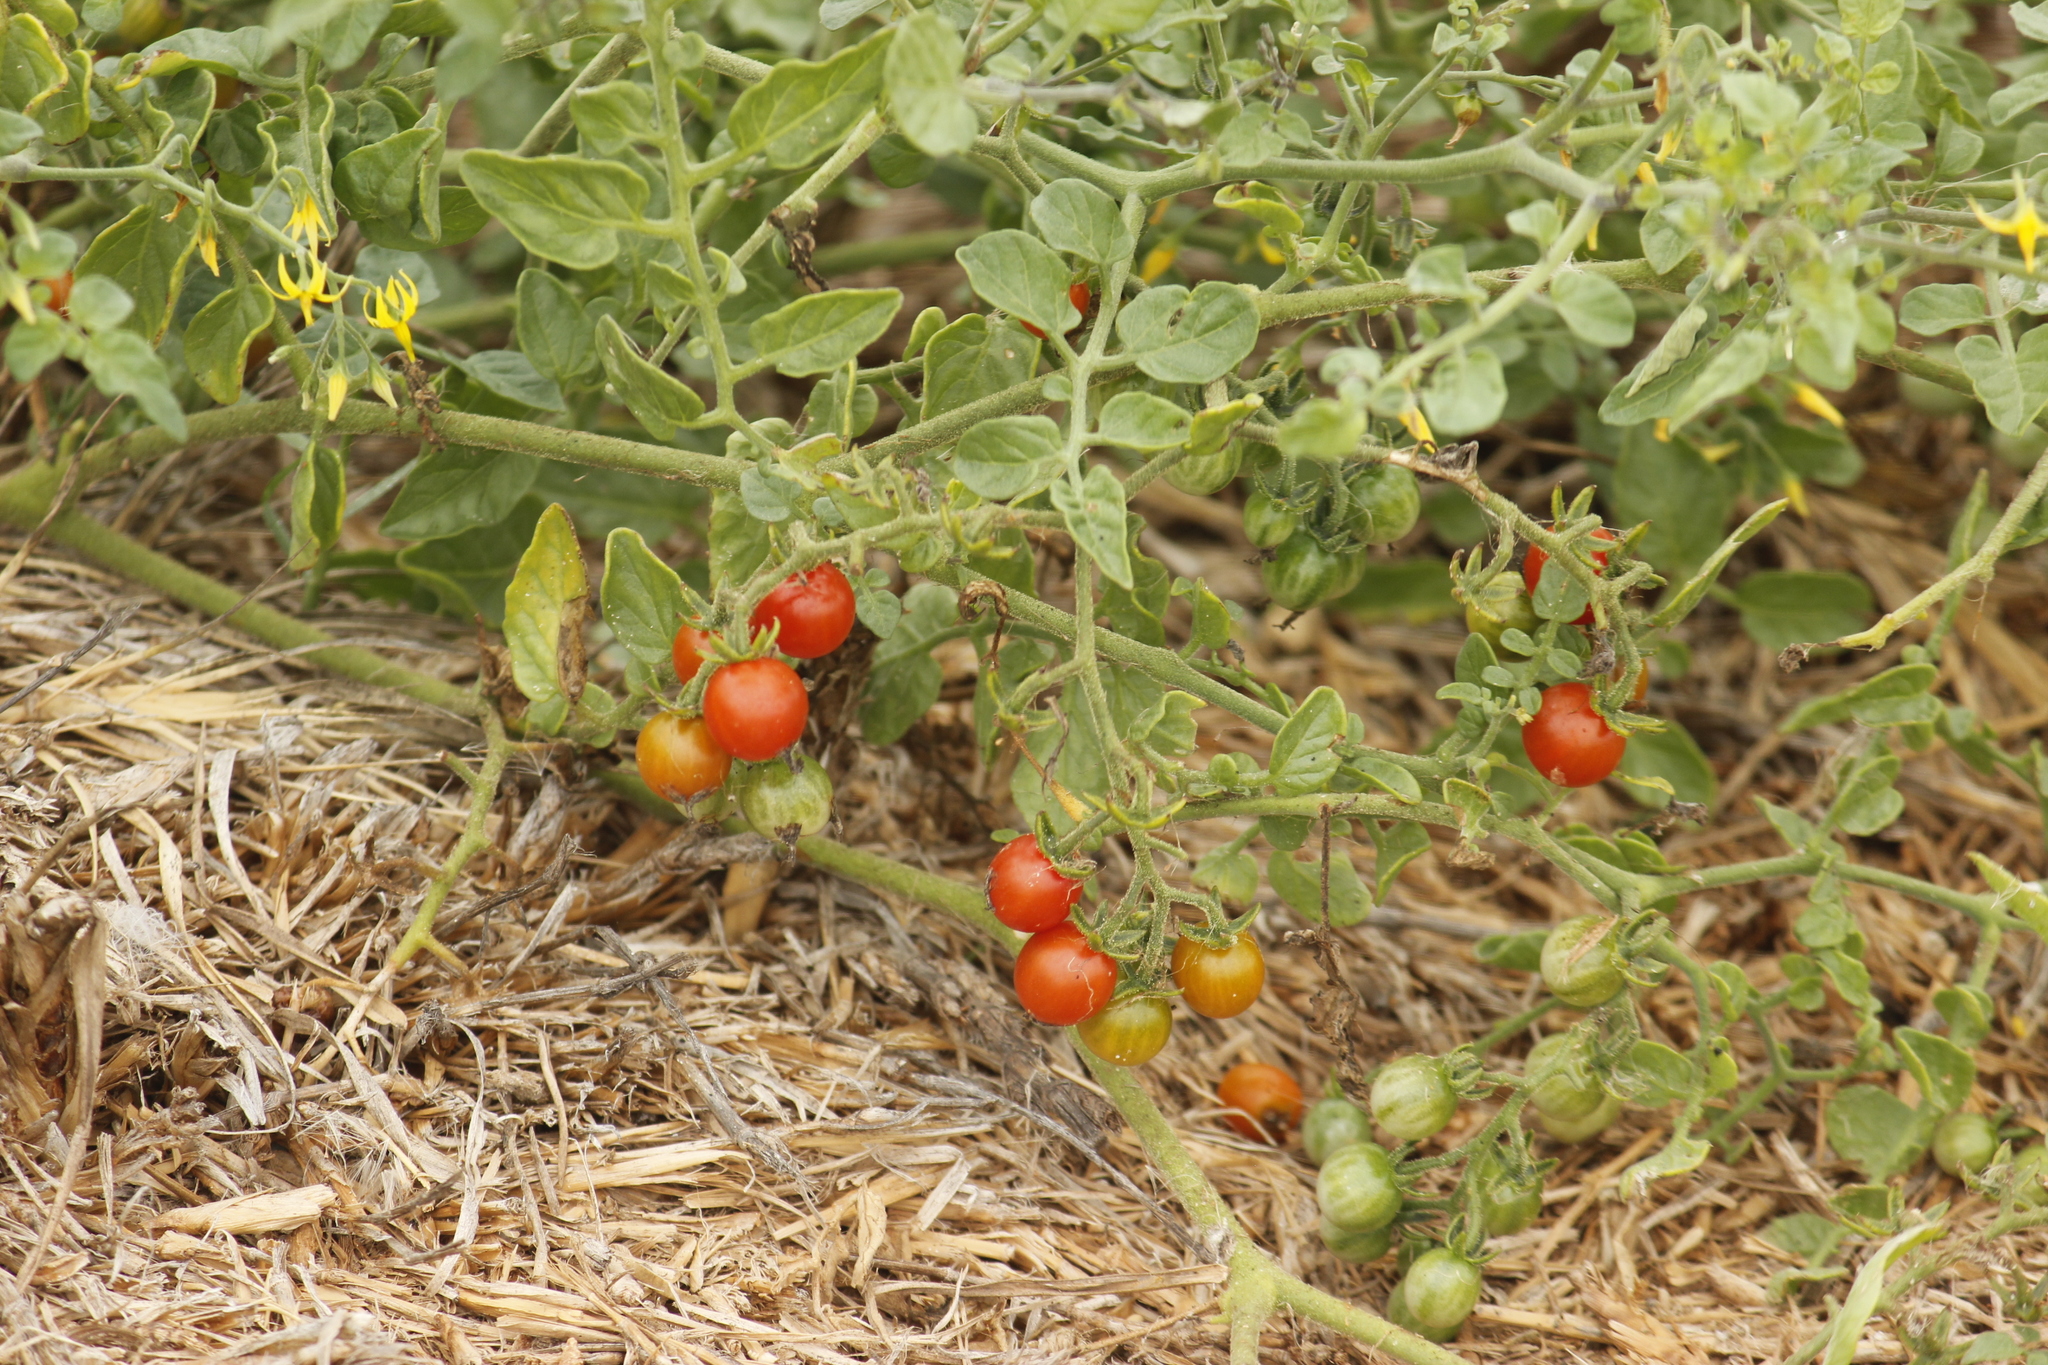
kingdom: Plantae
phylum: Tracheophyta
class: Magnoliopsida
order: Solanales
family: Solanaceae
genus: Solanum
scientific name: Solanum pimpinellifolium
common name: Currant-tomato
